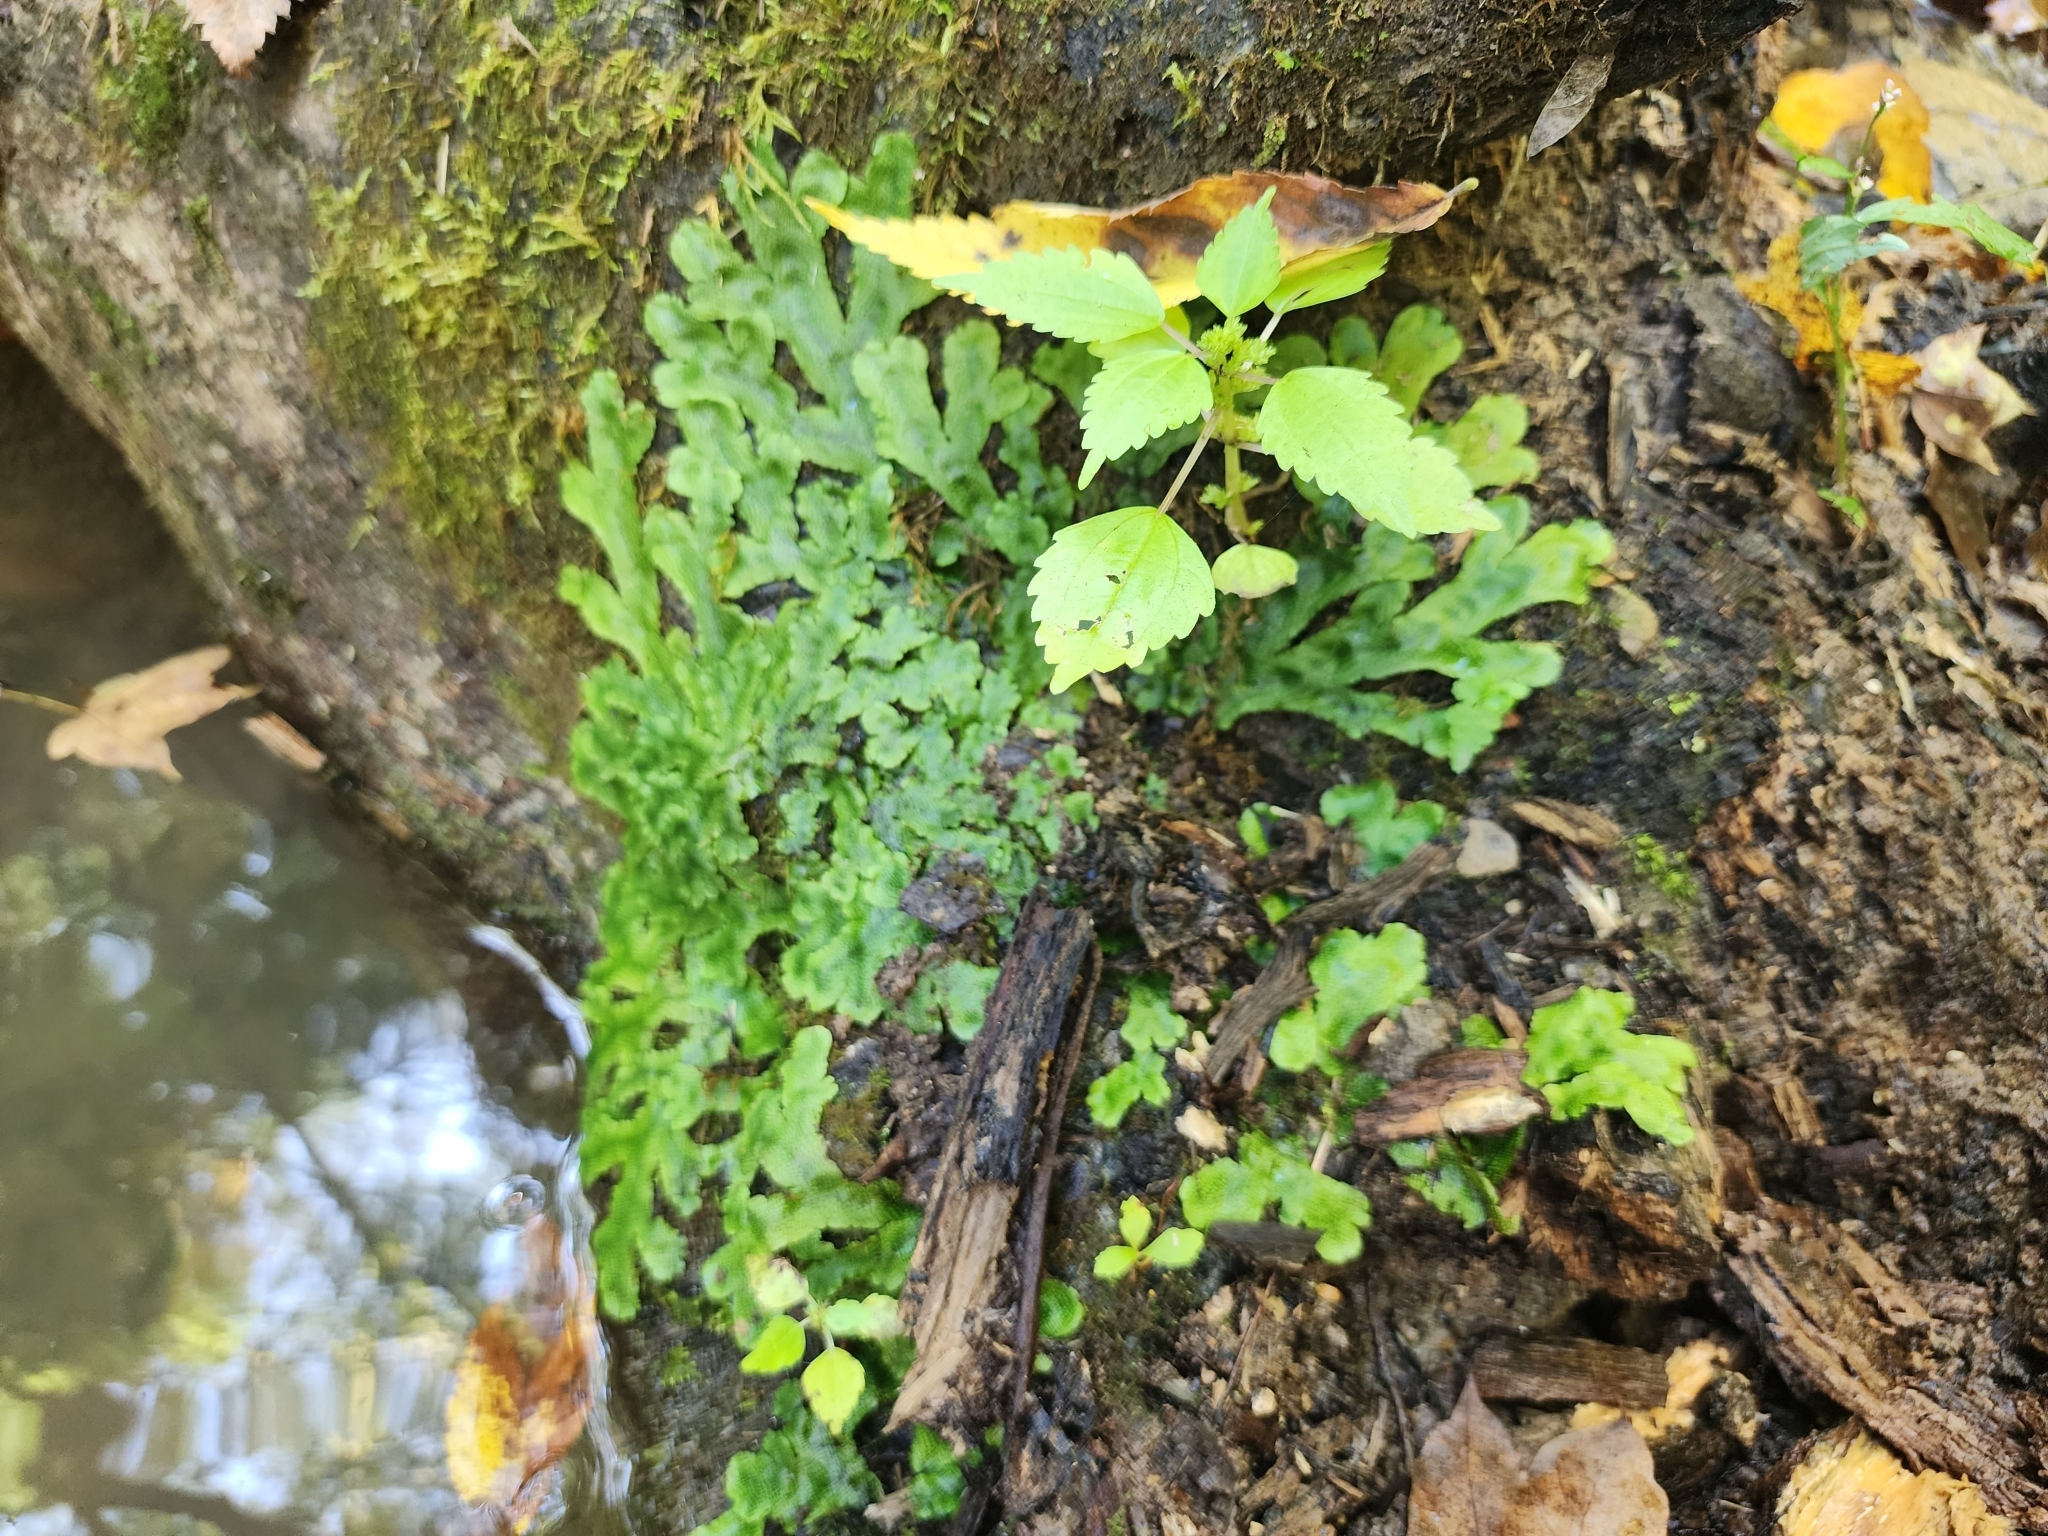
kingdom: Plantae
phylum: Marchantiophyta
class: Marchantiopsida
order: Marchantiales
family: Conocephalaceae
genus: Conocephalum
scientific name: Conocephalum salebrosum
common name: Cat-tongue liverwort
